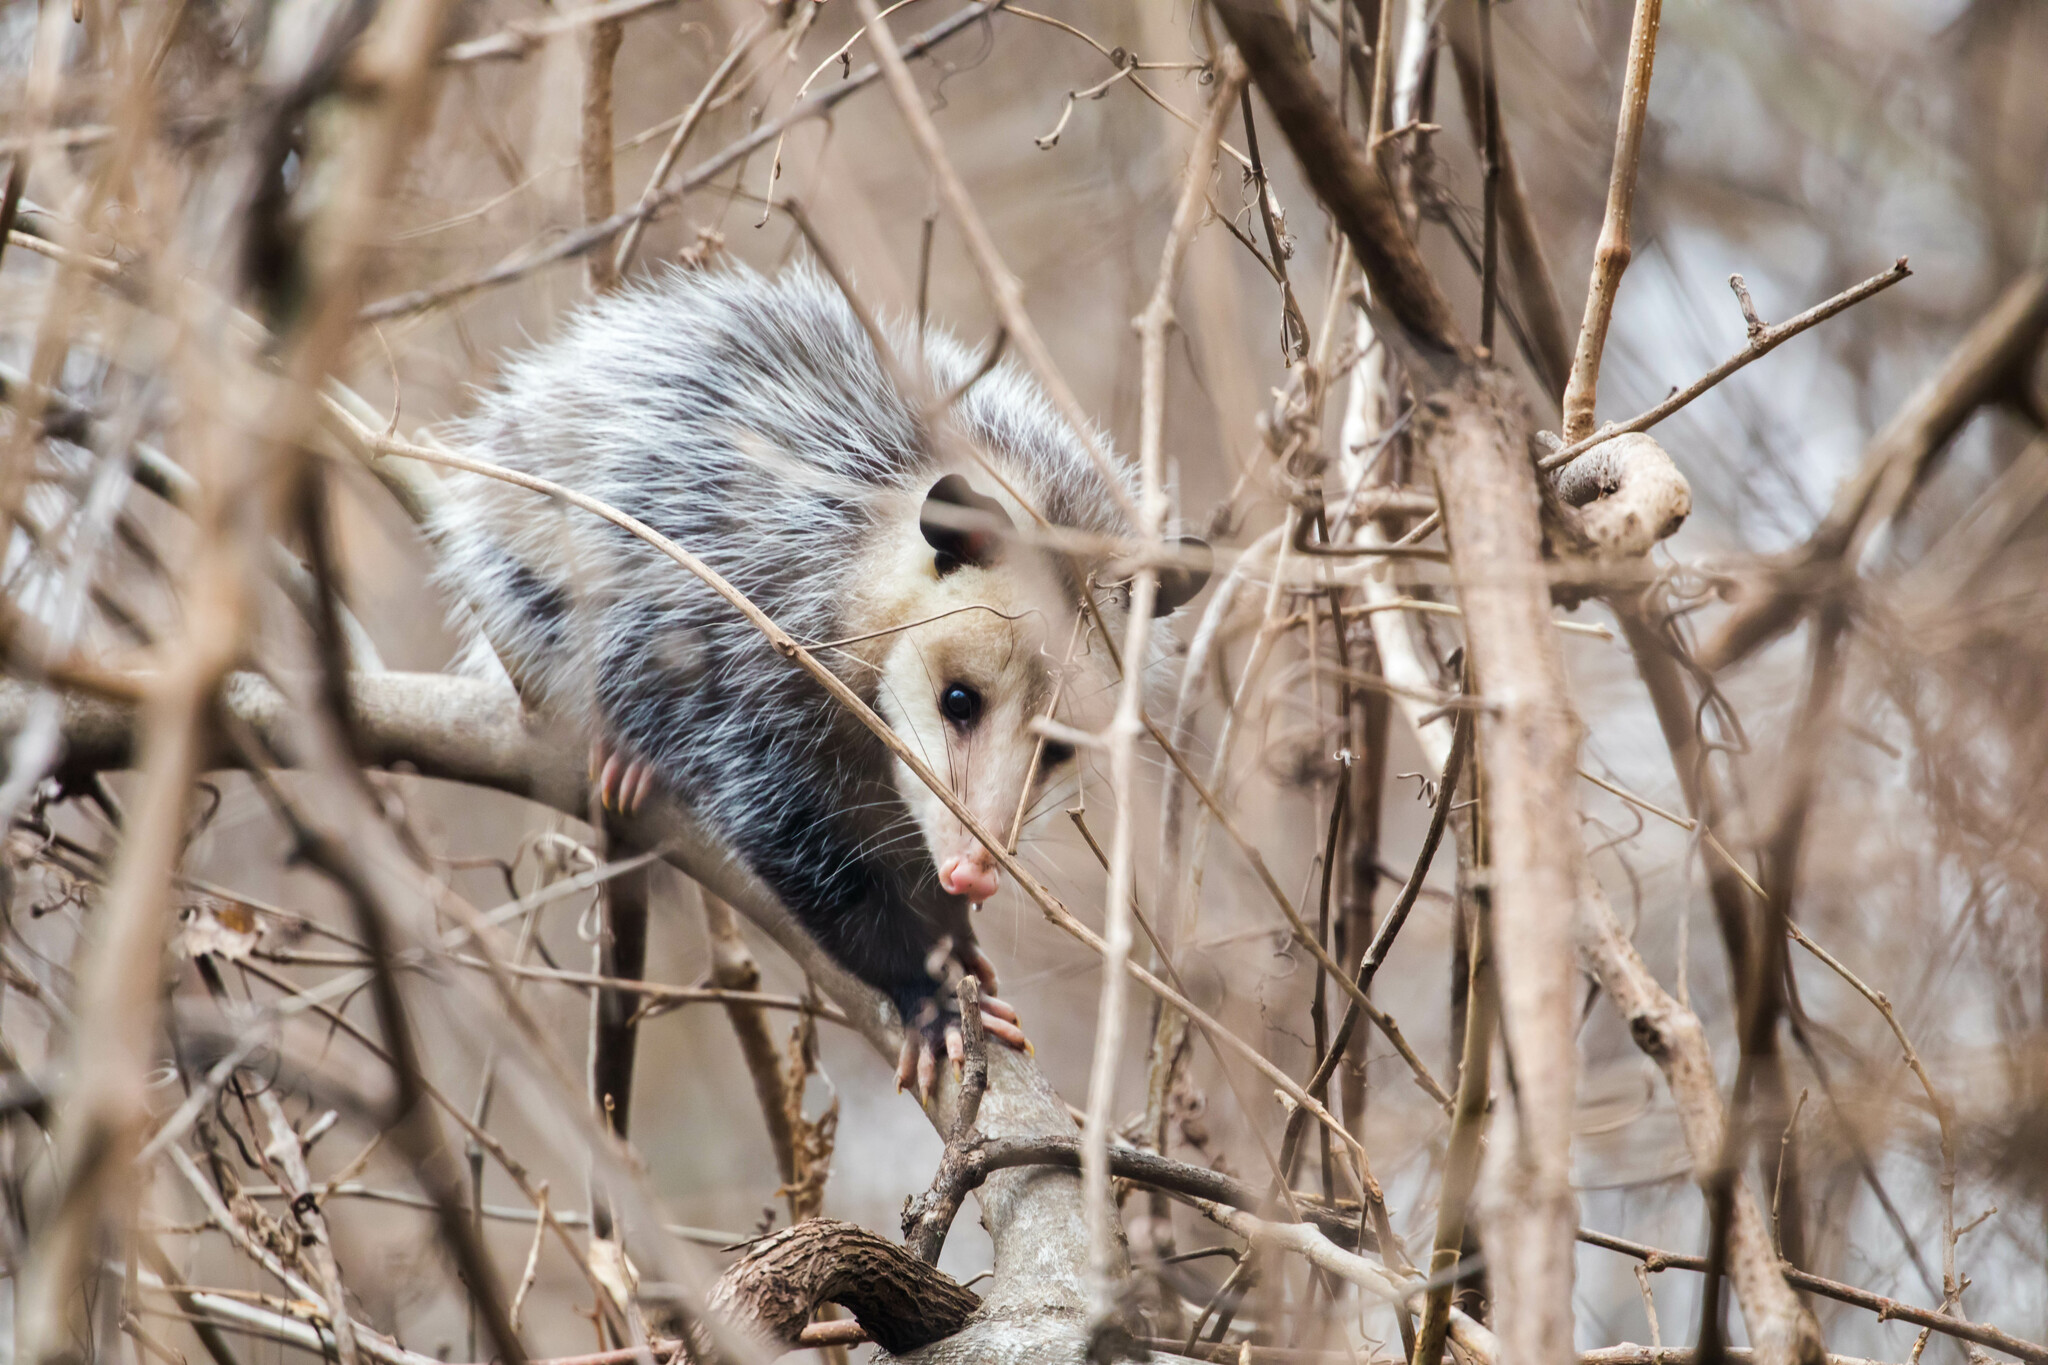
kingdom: Animalia
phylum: Chordata
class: Mammalia
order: Didelphimorphia
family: Didelphidae
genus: Didelphis
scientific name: Didelphis virginiana
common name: Virginia opossum
